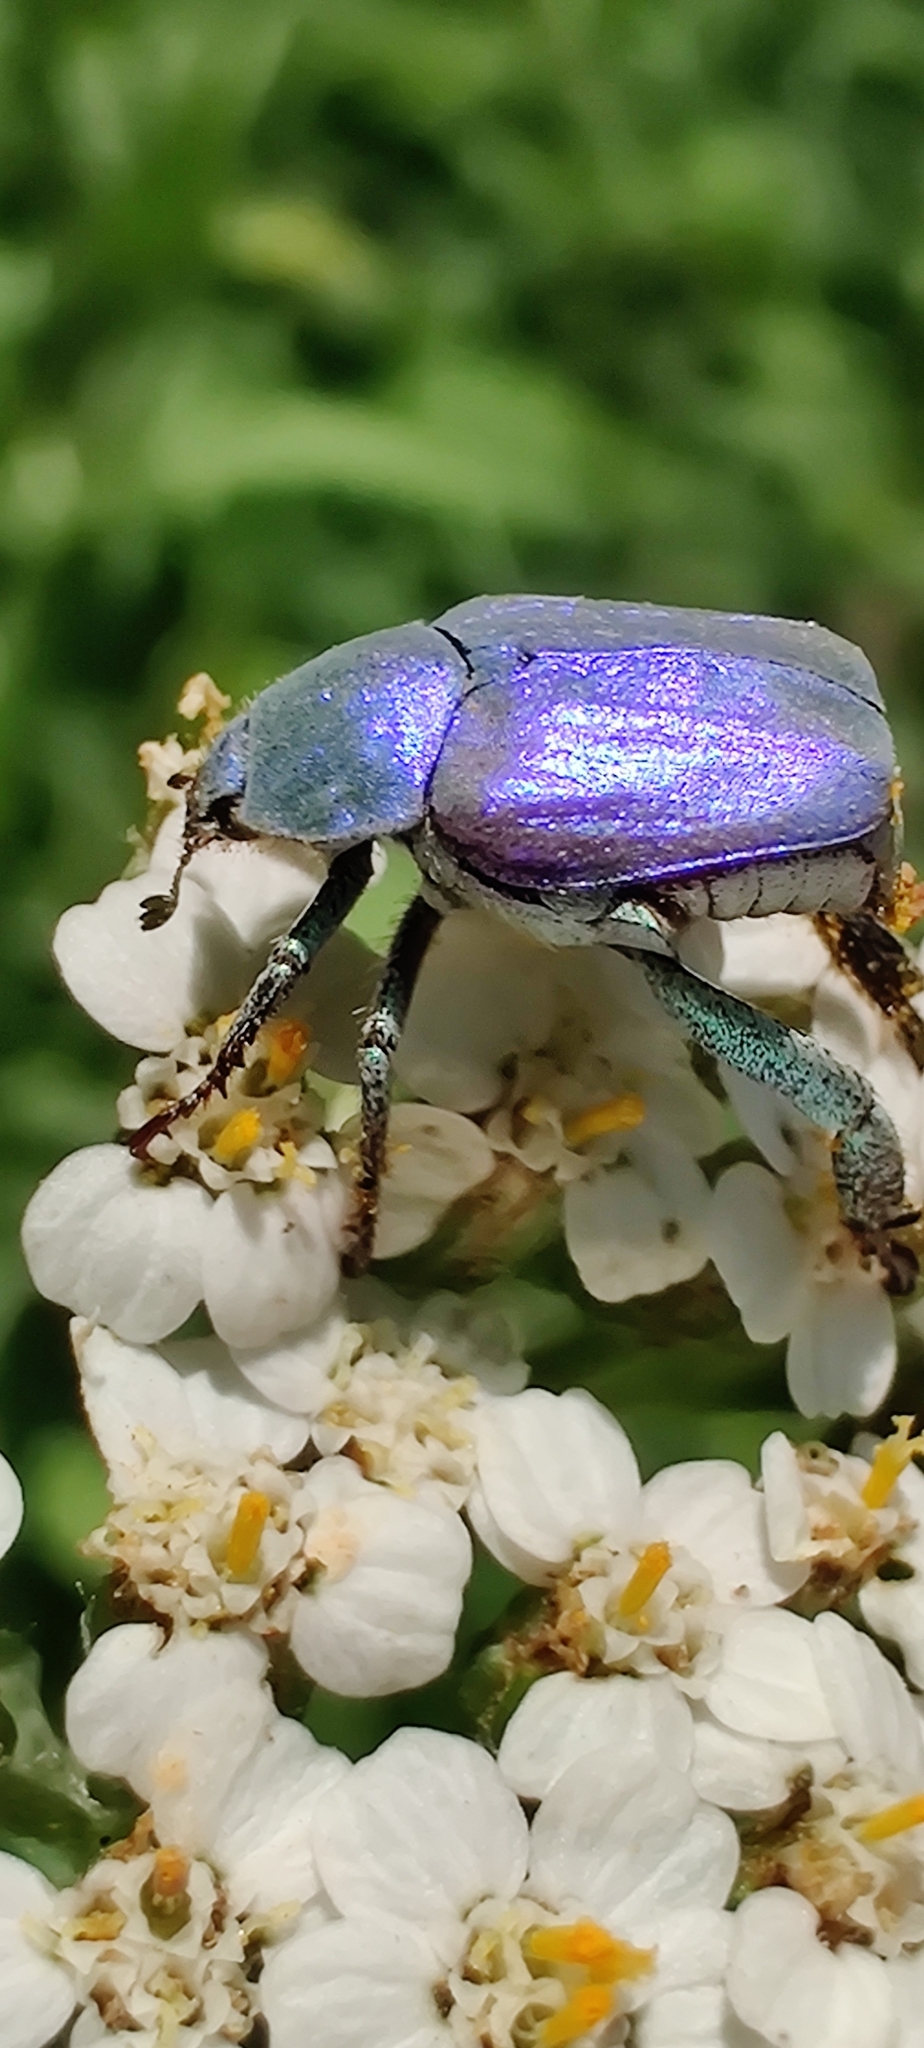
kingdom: Animalia
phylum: Arthropoda
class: Insecta
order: Coleoptera
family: Scarabaeidae
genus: Hoplia
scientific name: Hoplia coerulea
